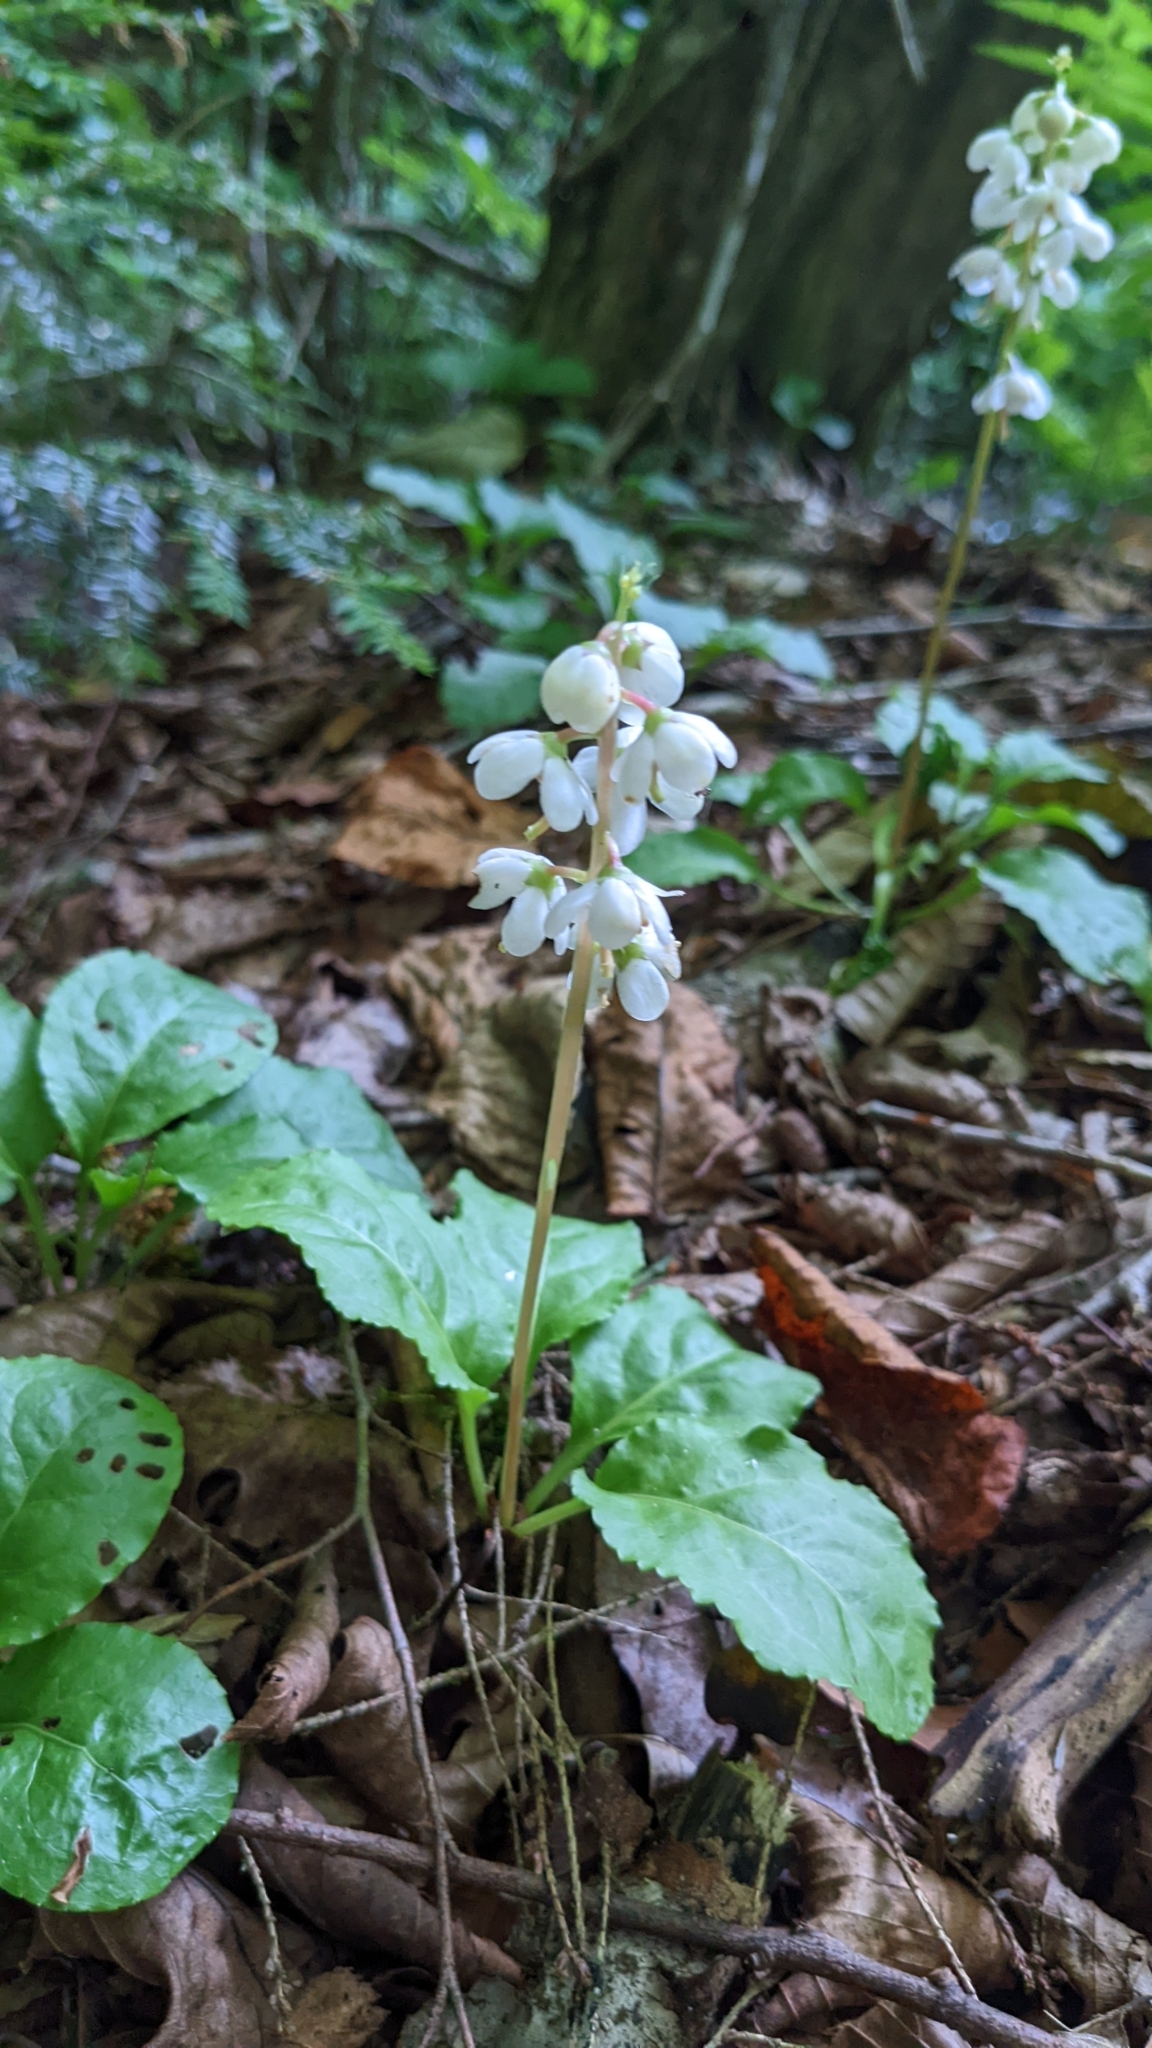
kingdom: Plantae
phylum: Tracheophyta
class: Magnoliopsida
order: Ericales
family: Ericaceae
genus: Pyrola
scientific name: Pyrola elliptica
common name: Shinleaf
